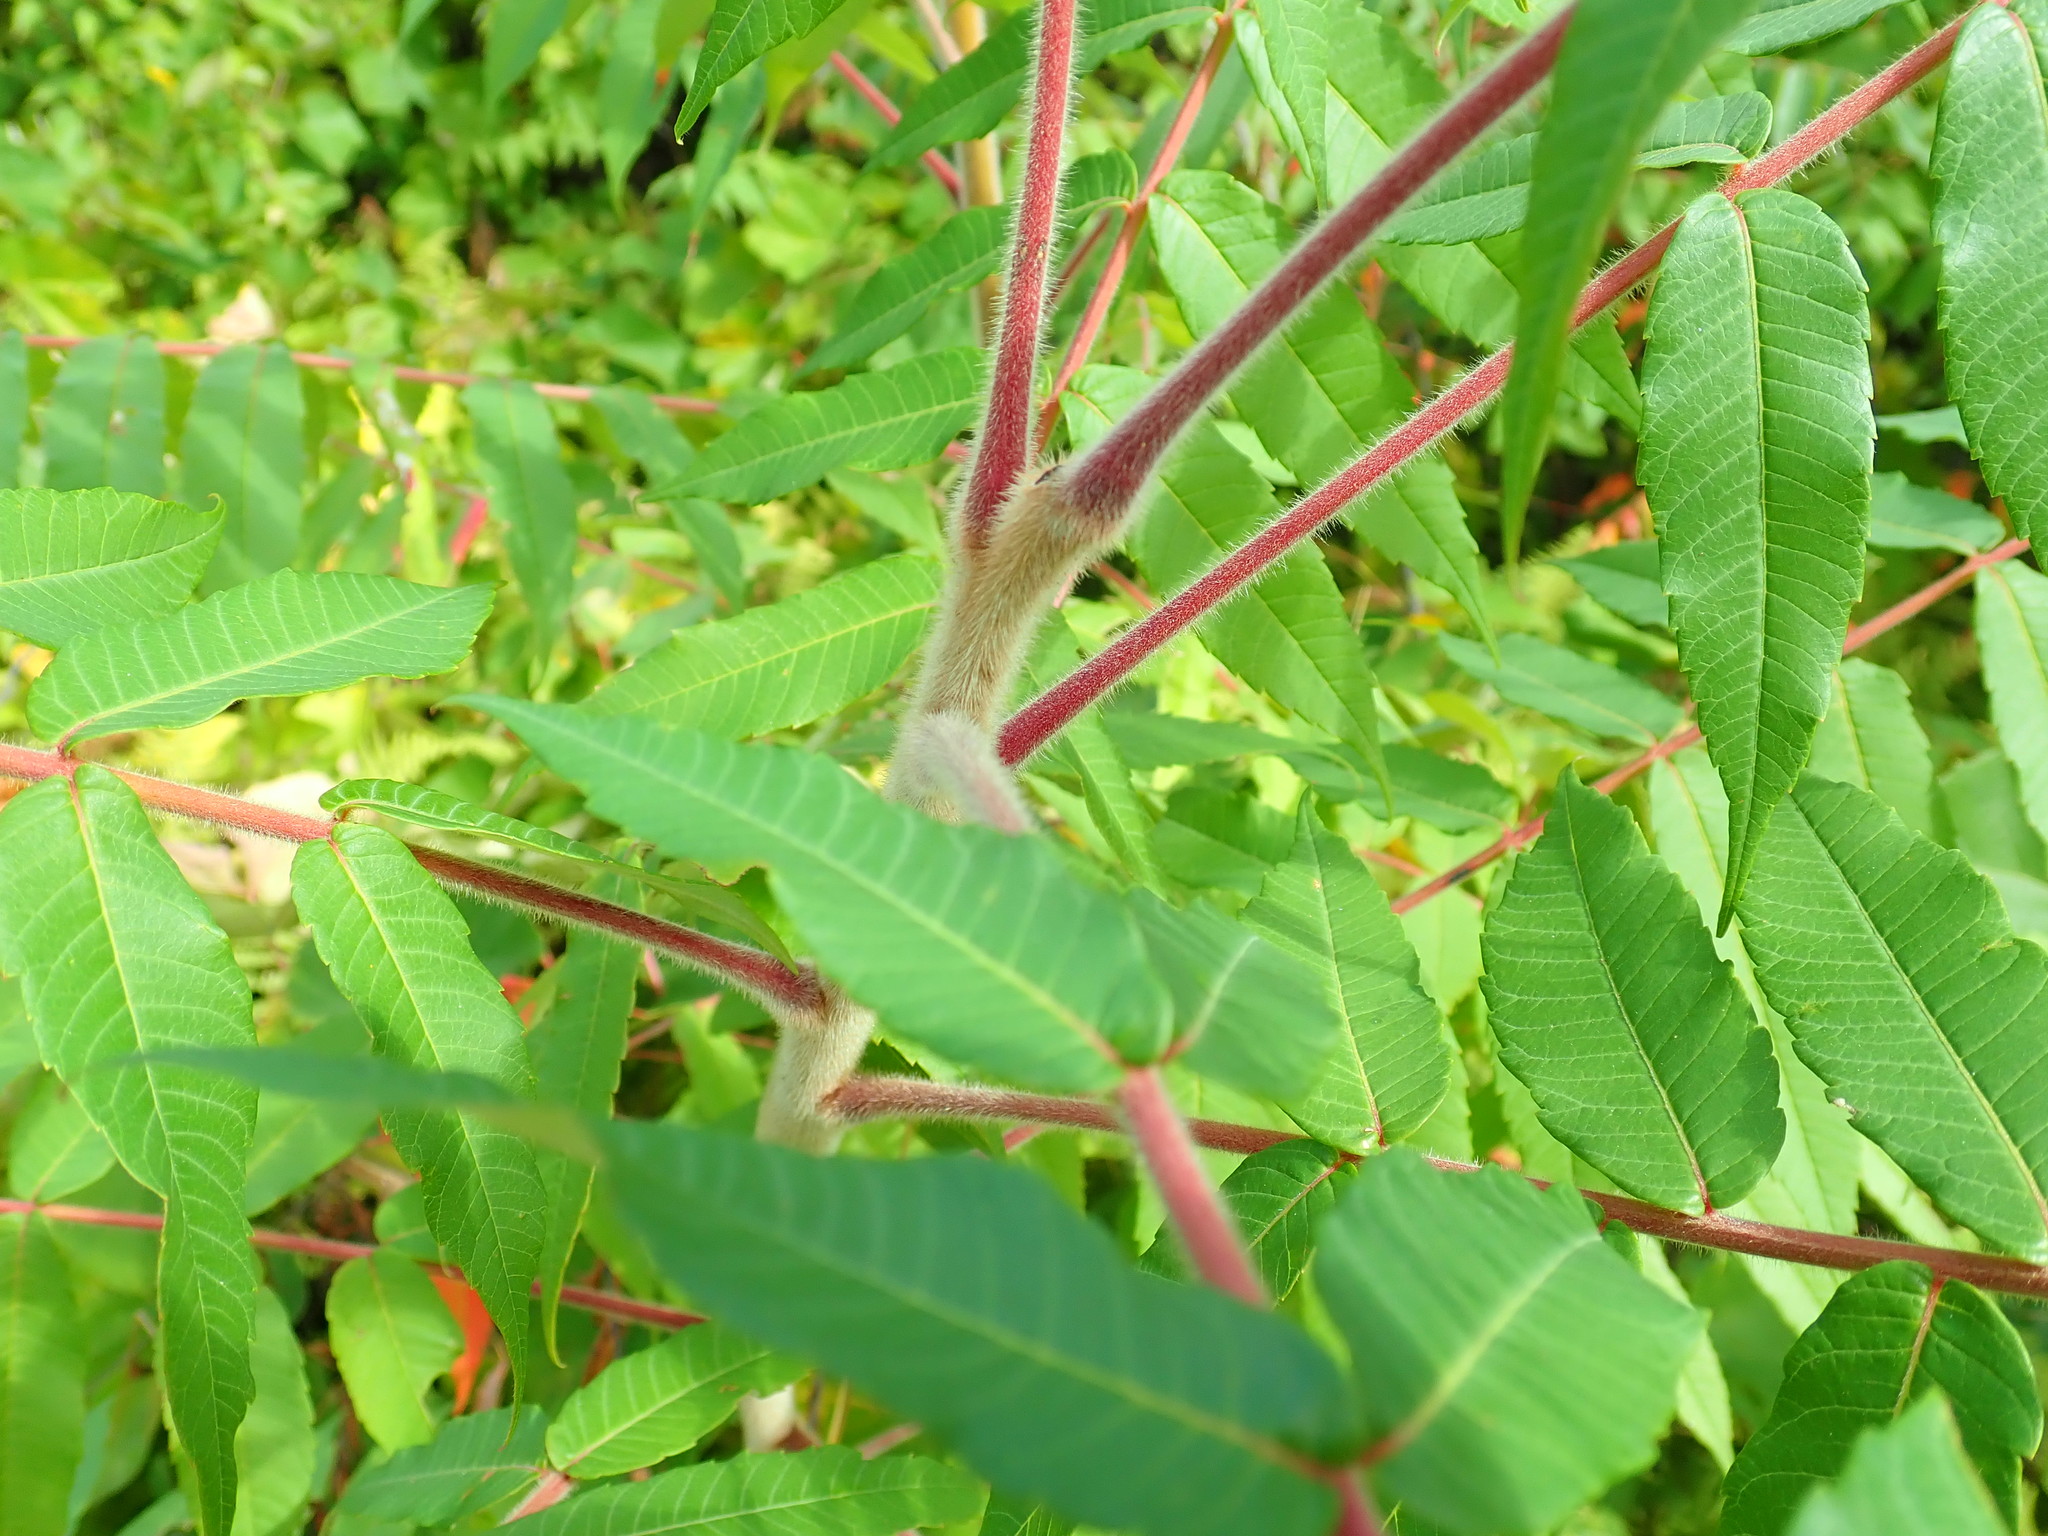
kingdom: Plantae
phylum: Tracheophyta
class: Magnoliopsida
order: Sapindales
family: Anacardiaceae
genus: Rhus
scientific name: Rhus typhina
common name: Staghorn sumac
